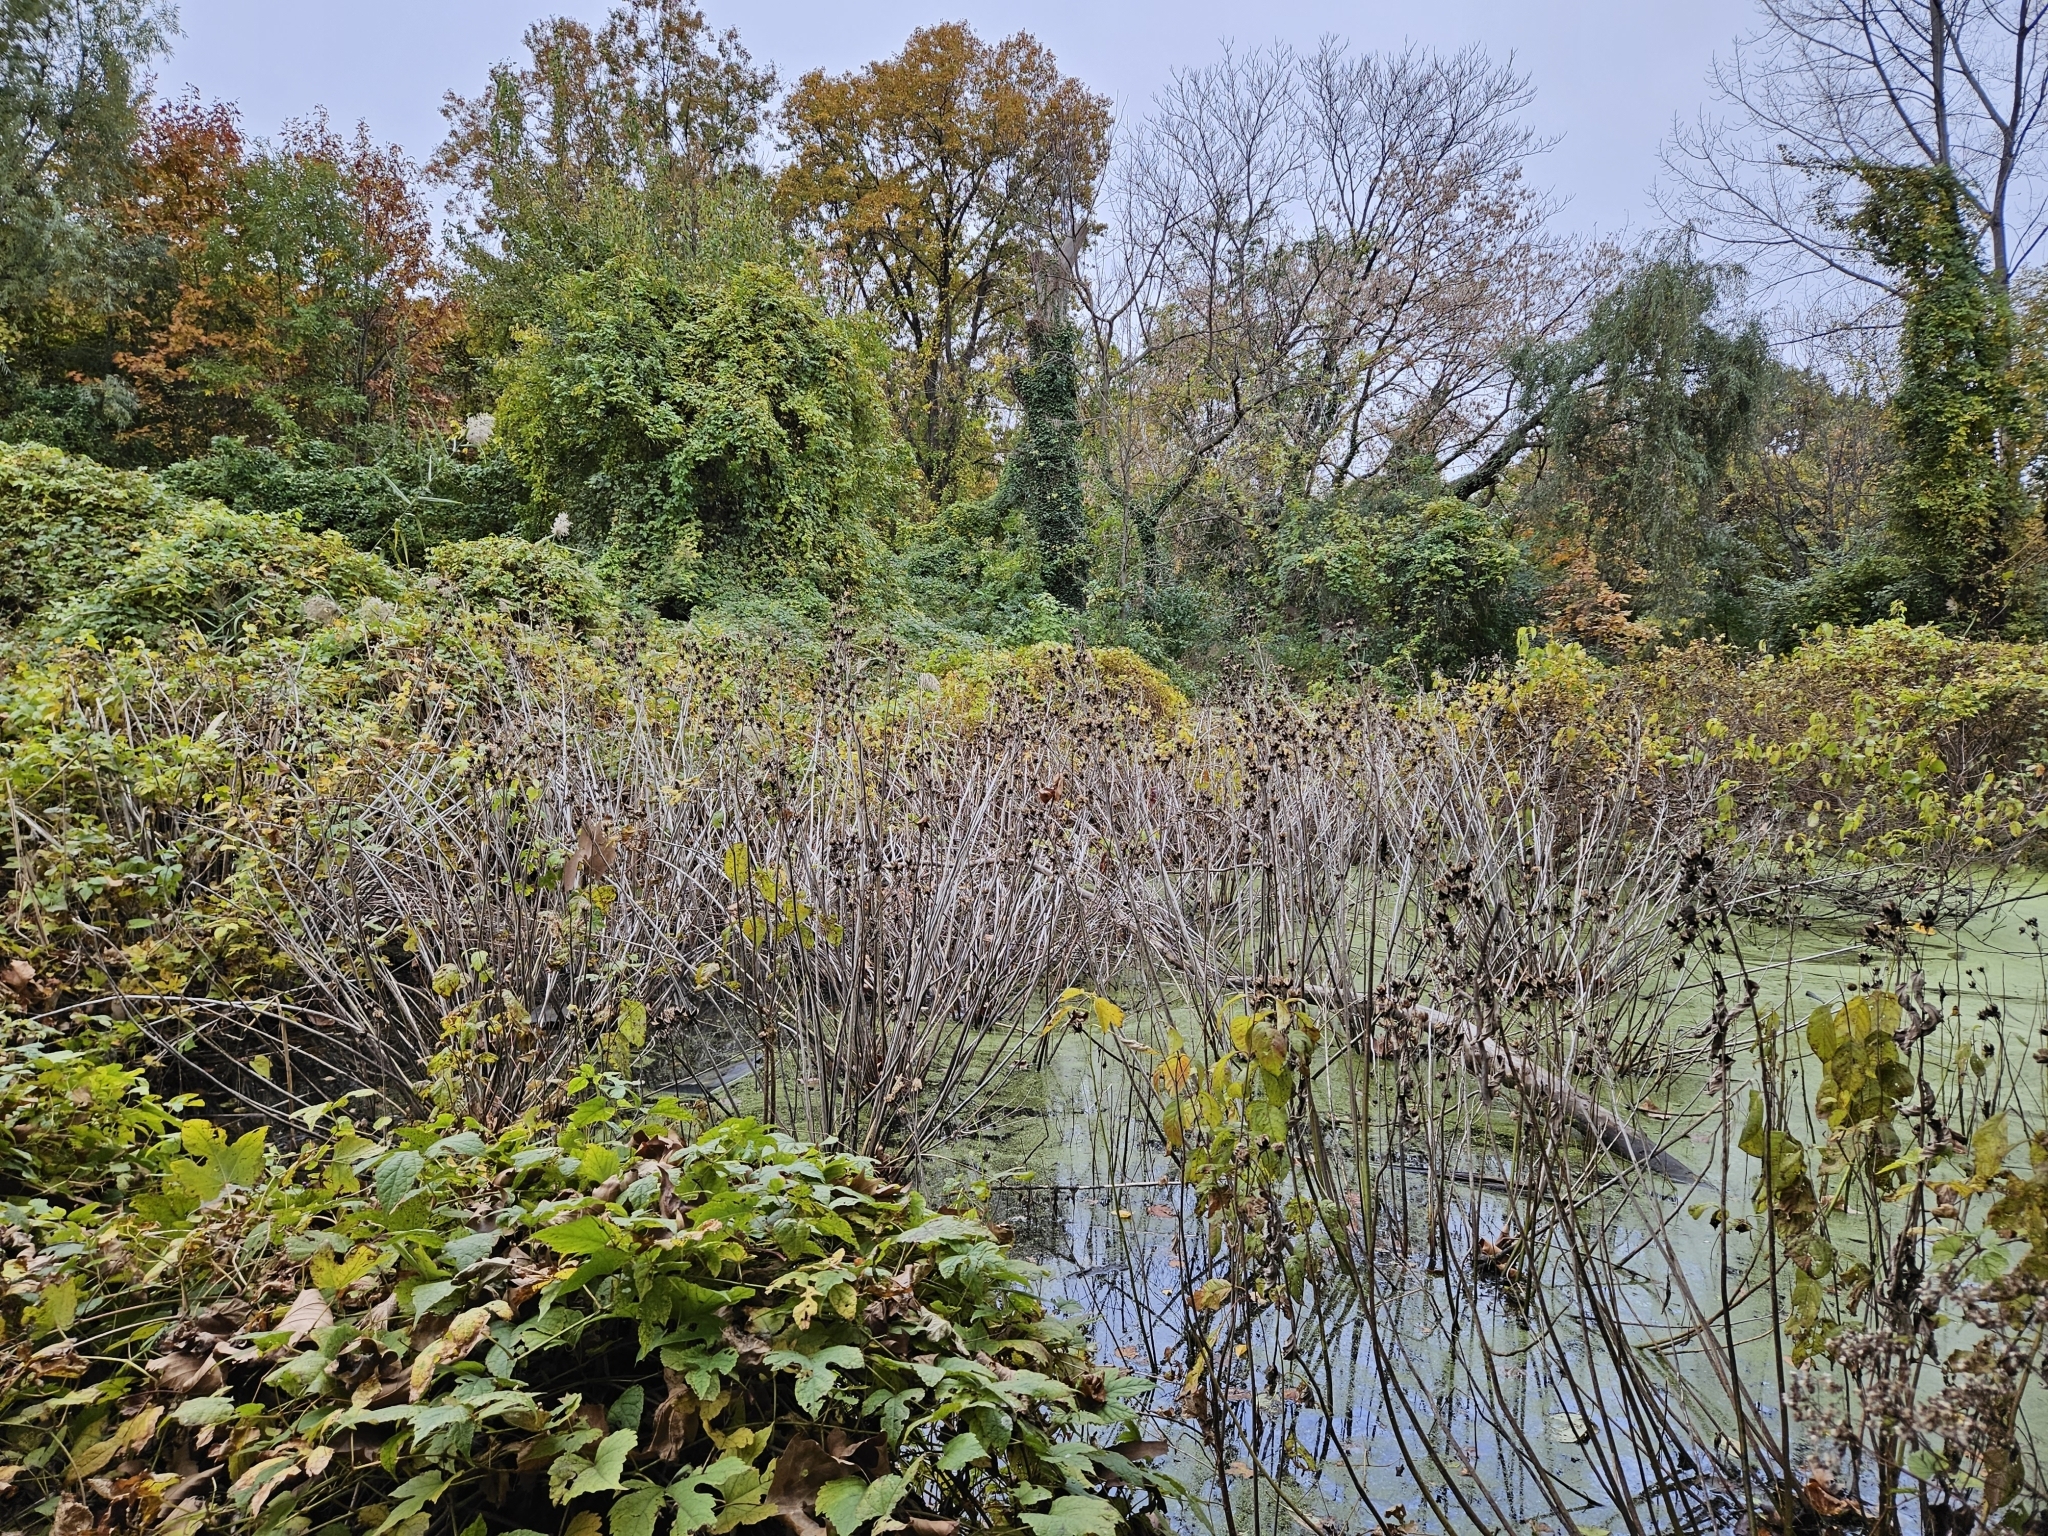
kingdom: Plantae
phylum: Tracheophyta
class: Magnoliopsida
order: Malvales
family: Malvaceae
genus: Hibiscus
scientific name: Hibiscus moscheutos
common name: Common rose-mallow
